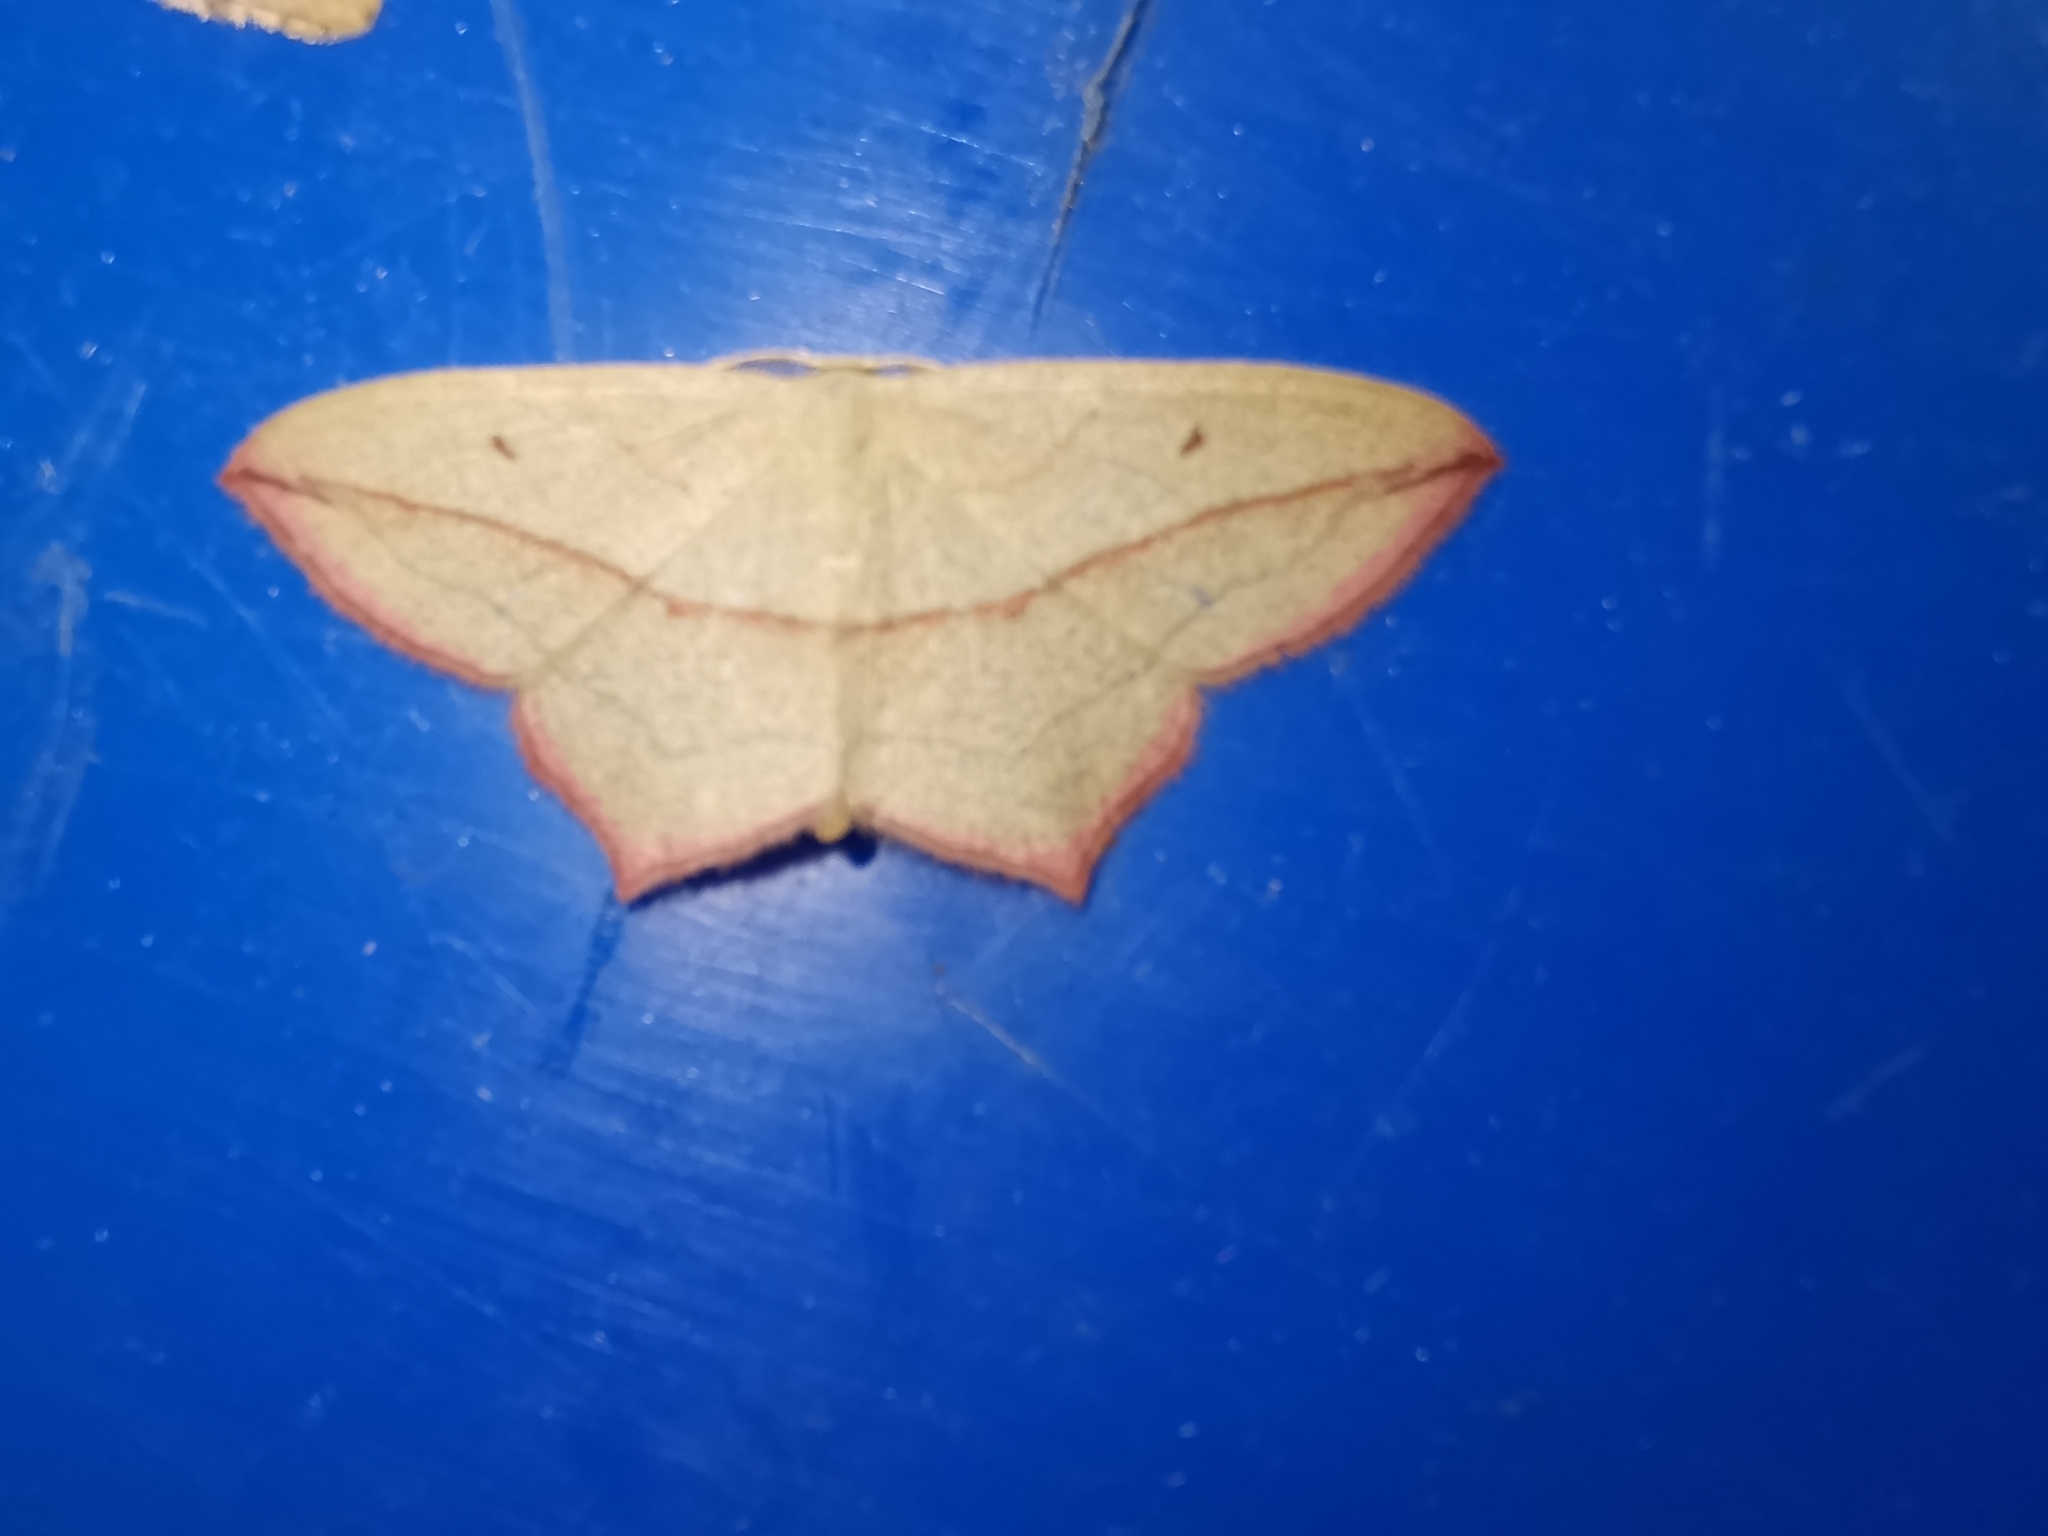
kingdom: Animalia
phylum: Arthropoda
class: Insecta
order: Lepidoptera
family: Geometridae
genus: Timandra
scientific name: Timandra comae
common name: Blood-vein
